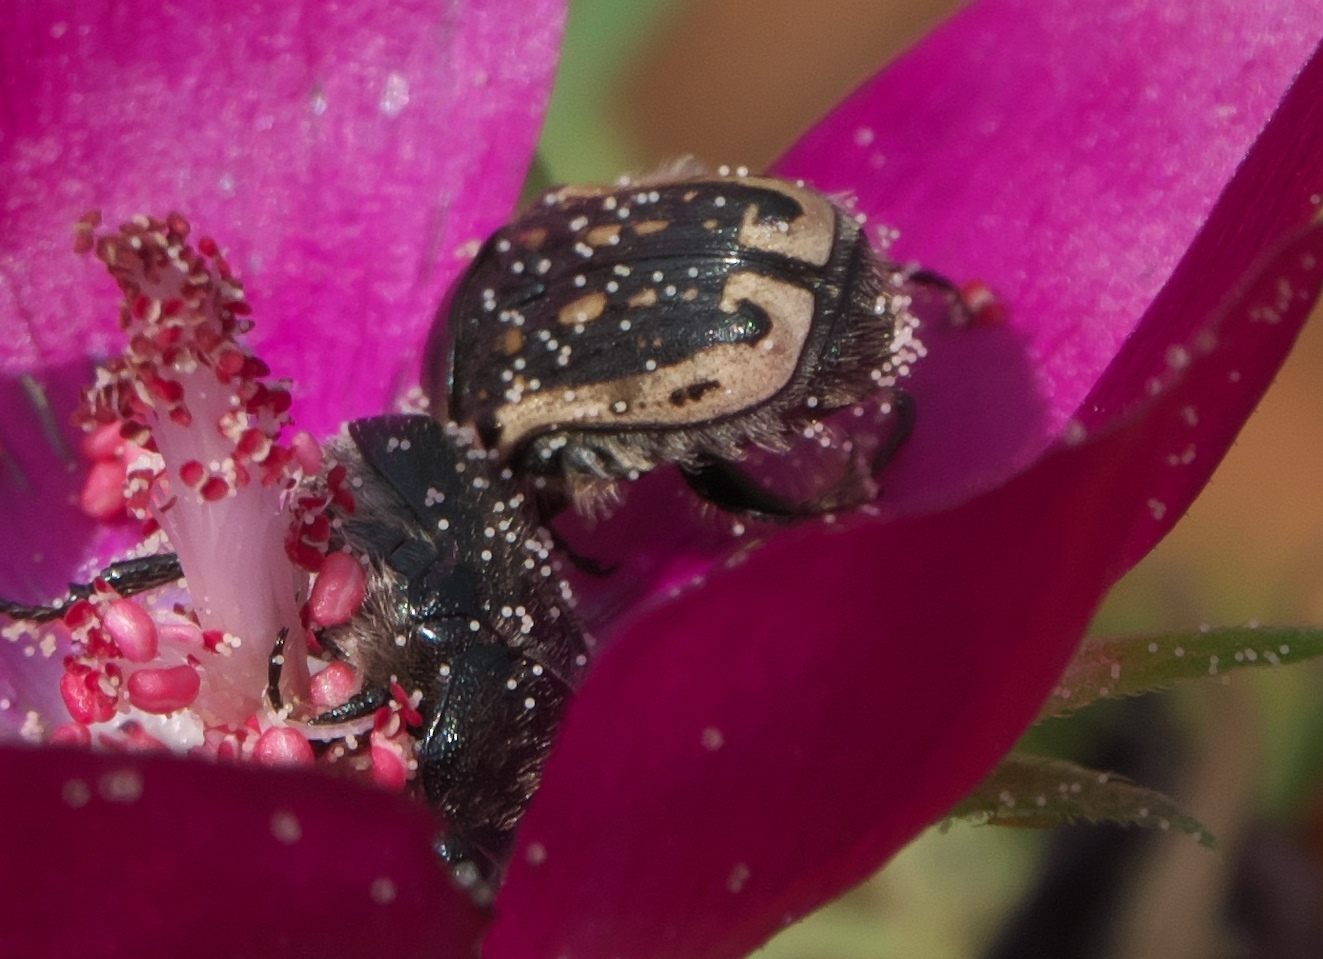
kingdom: Animalia
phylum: Arthropoda
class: Insecta
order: Coleoptera
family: Scarabaeidae
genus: Euphoria
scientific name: Euphoria kernii
